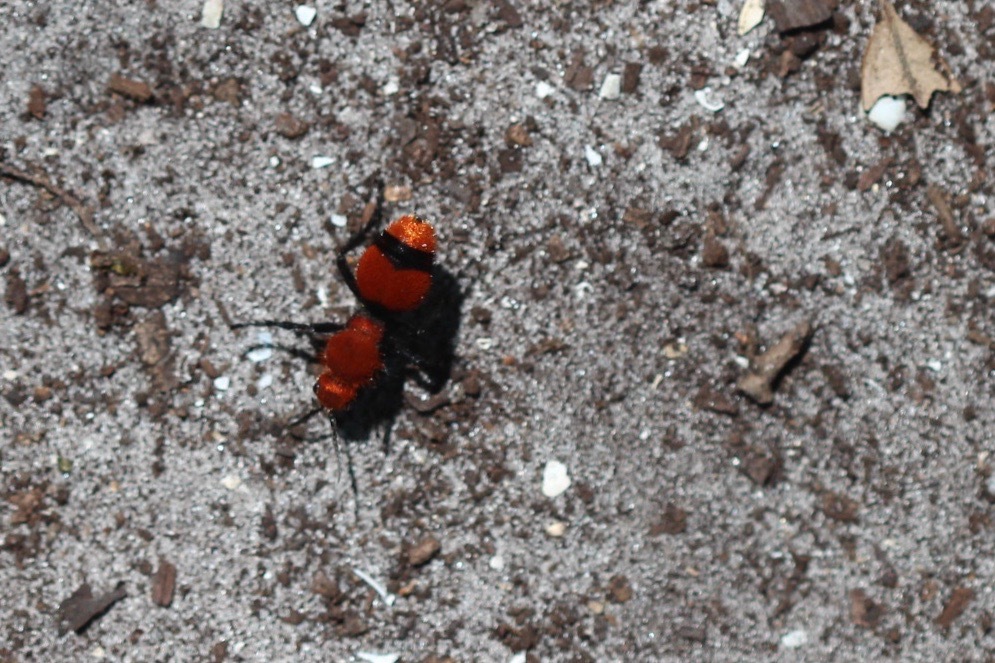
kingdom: Animalia
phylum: Arthropoda
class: Insecta
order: Hymenoptera
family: Mutillidae
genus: Dasymutilla
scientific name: Dasymutilla occidentalis
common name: Common eastern velvet ant
